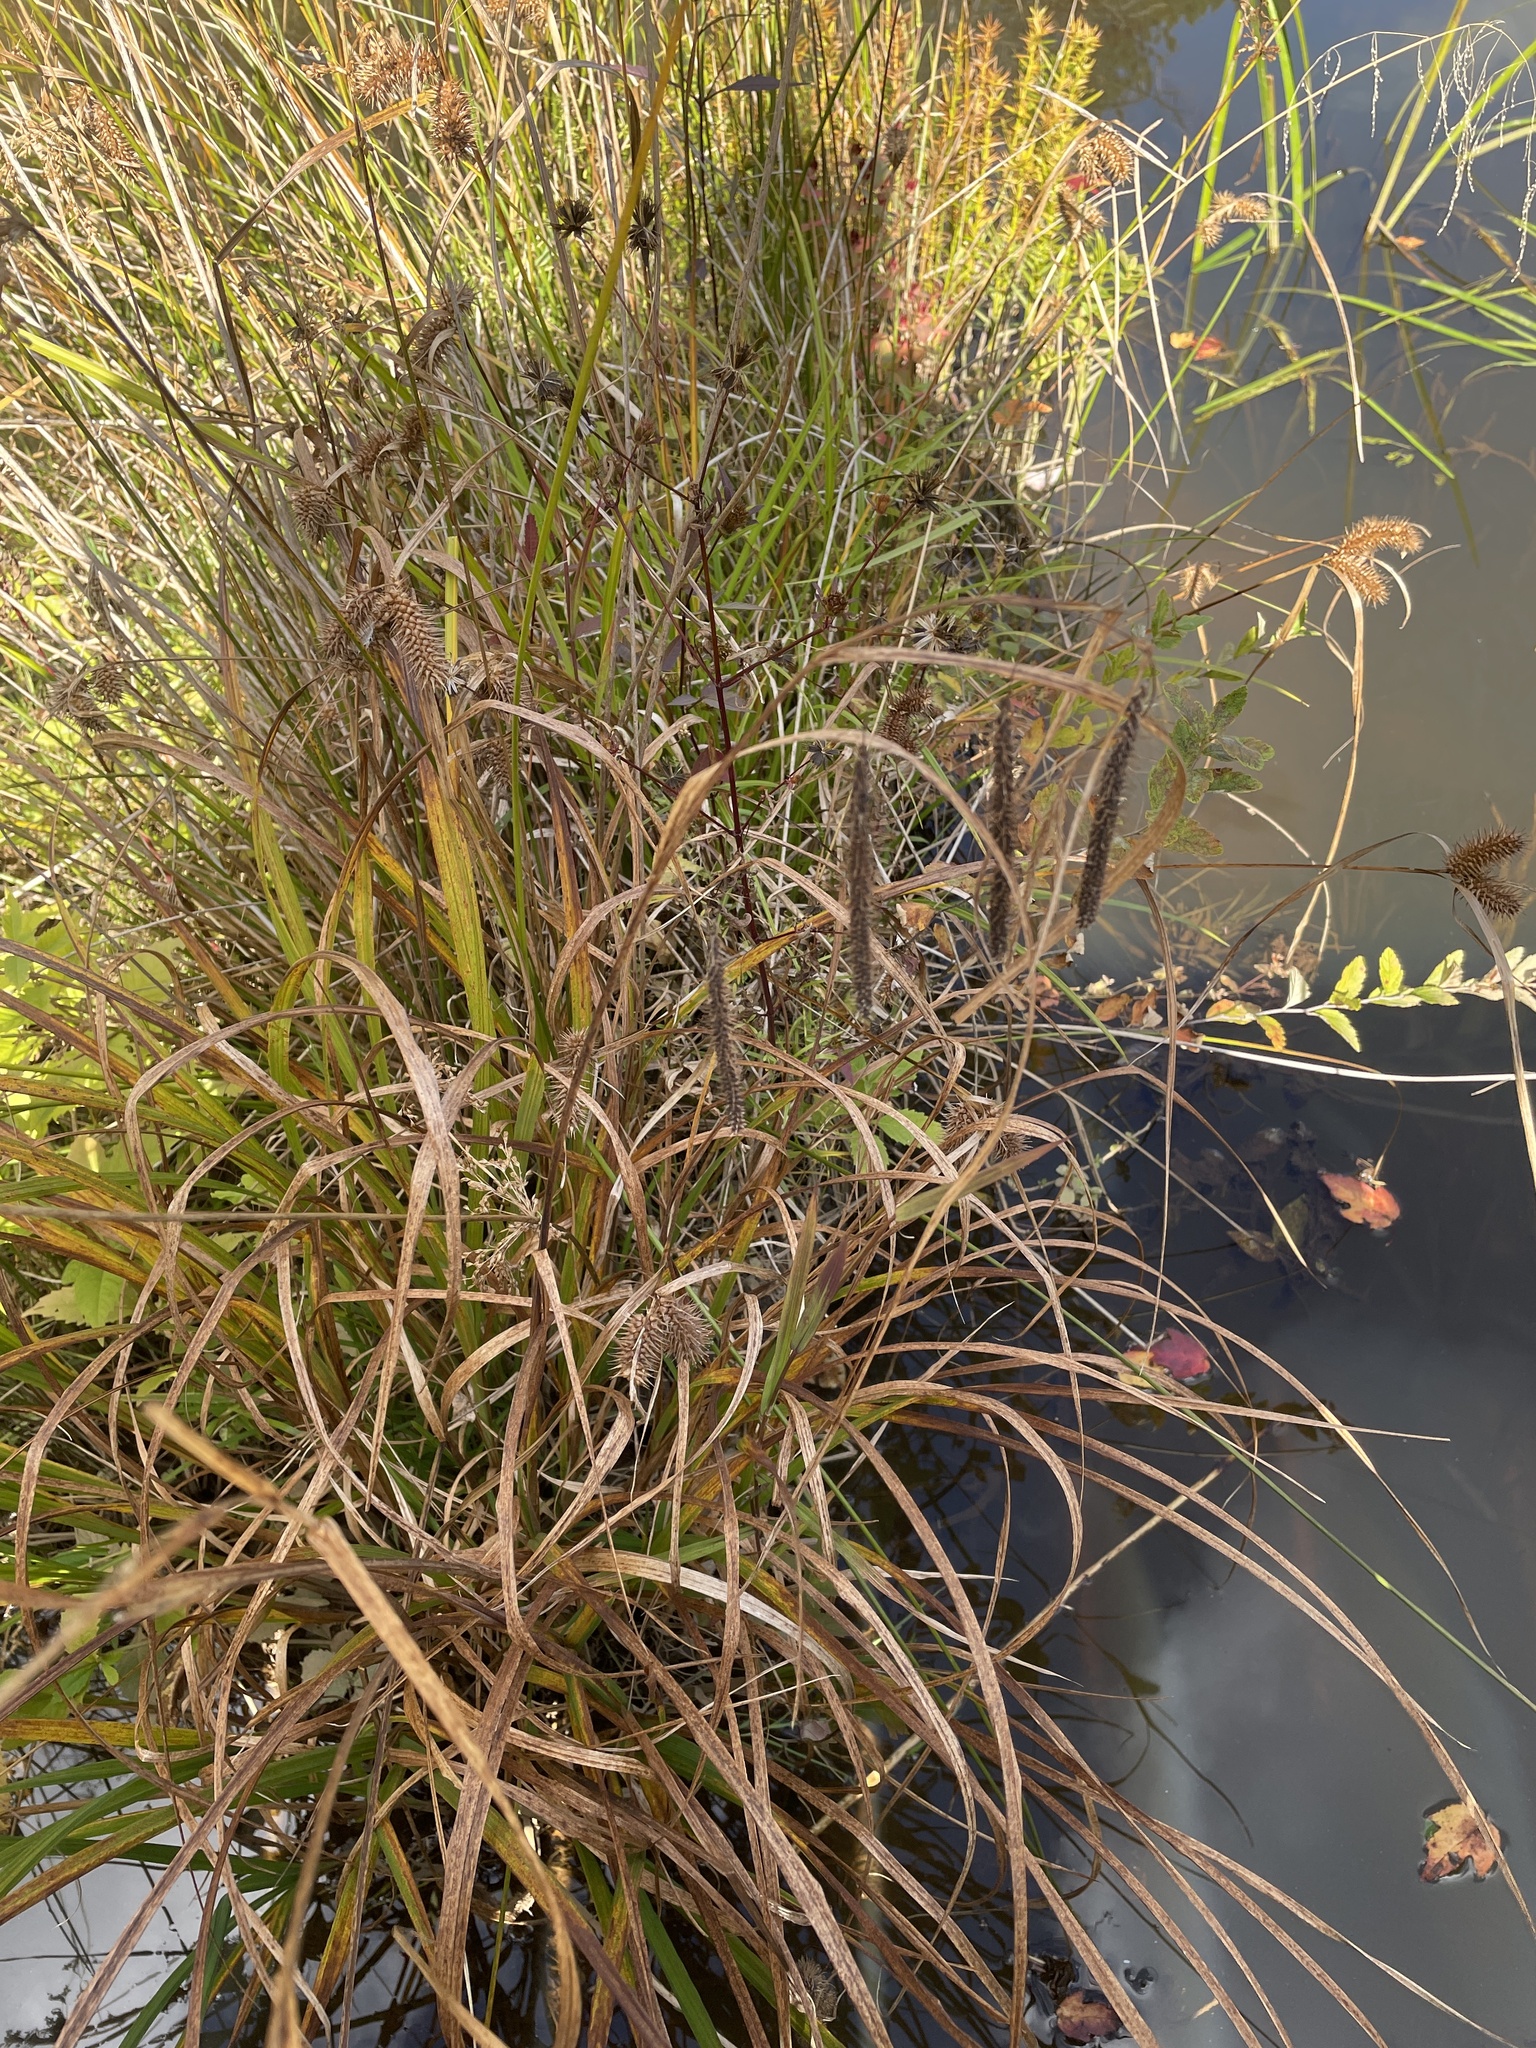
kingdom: Plantae
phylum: Tracheophyta
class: Liliopsida
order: Poales
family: Cyperaceae
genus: Carex
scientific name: Carex crinita
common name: Fringed sedge
